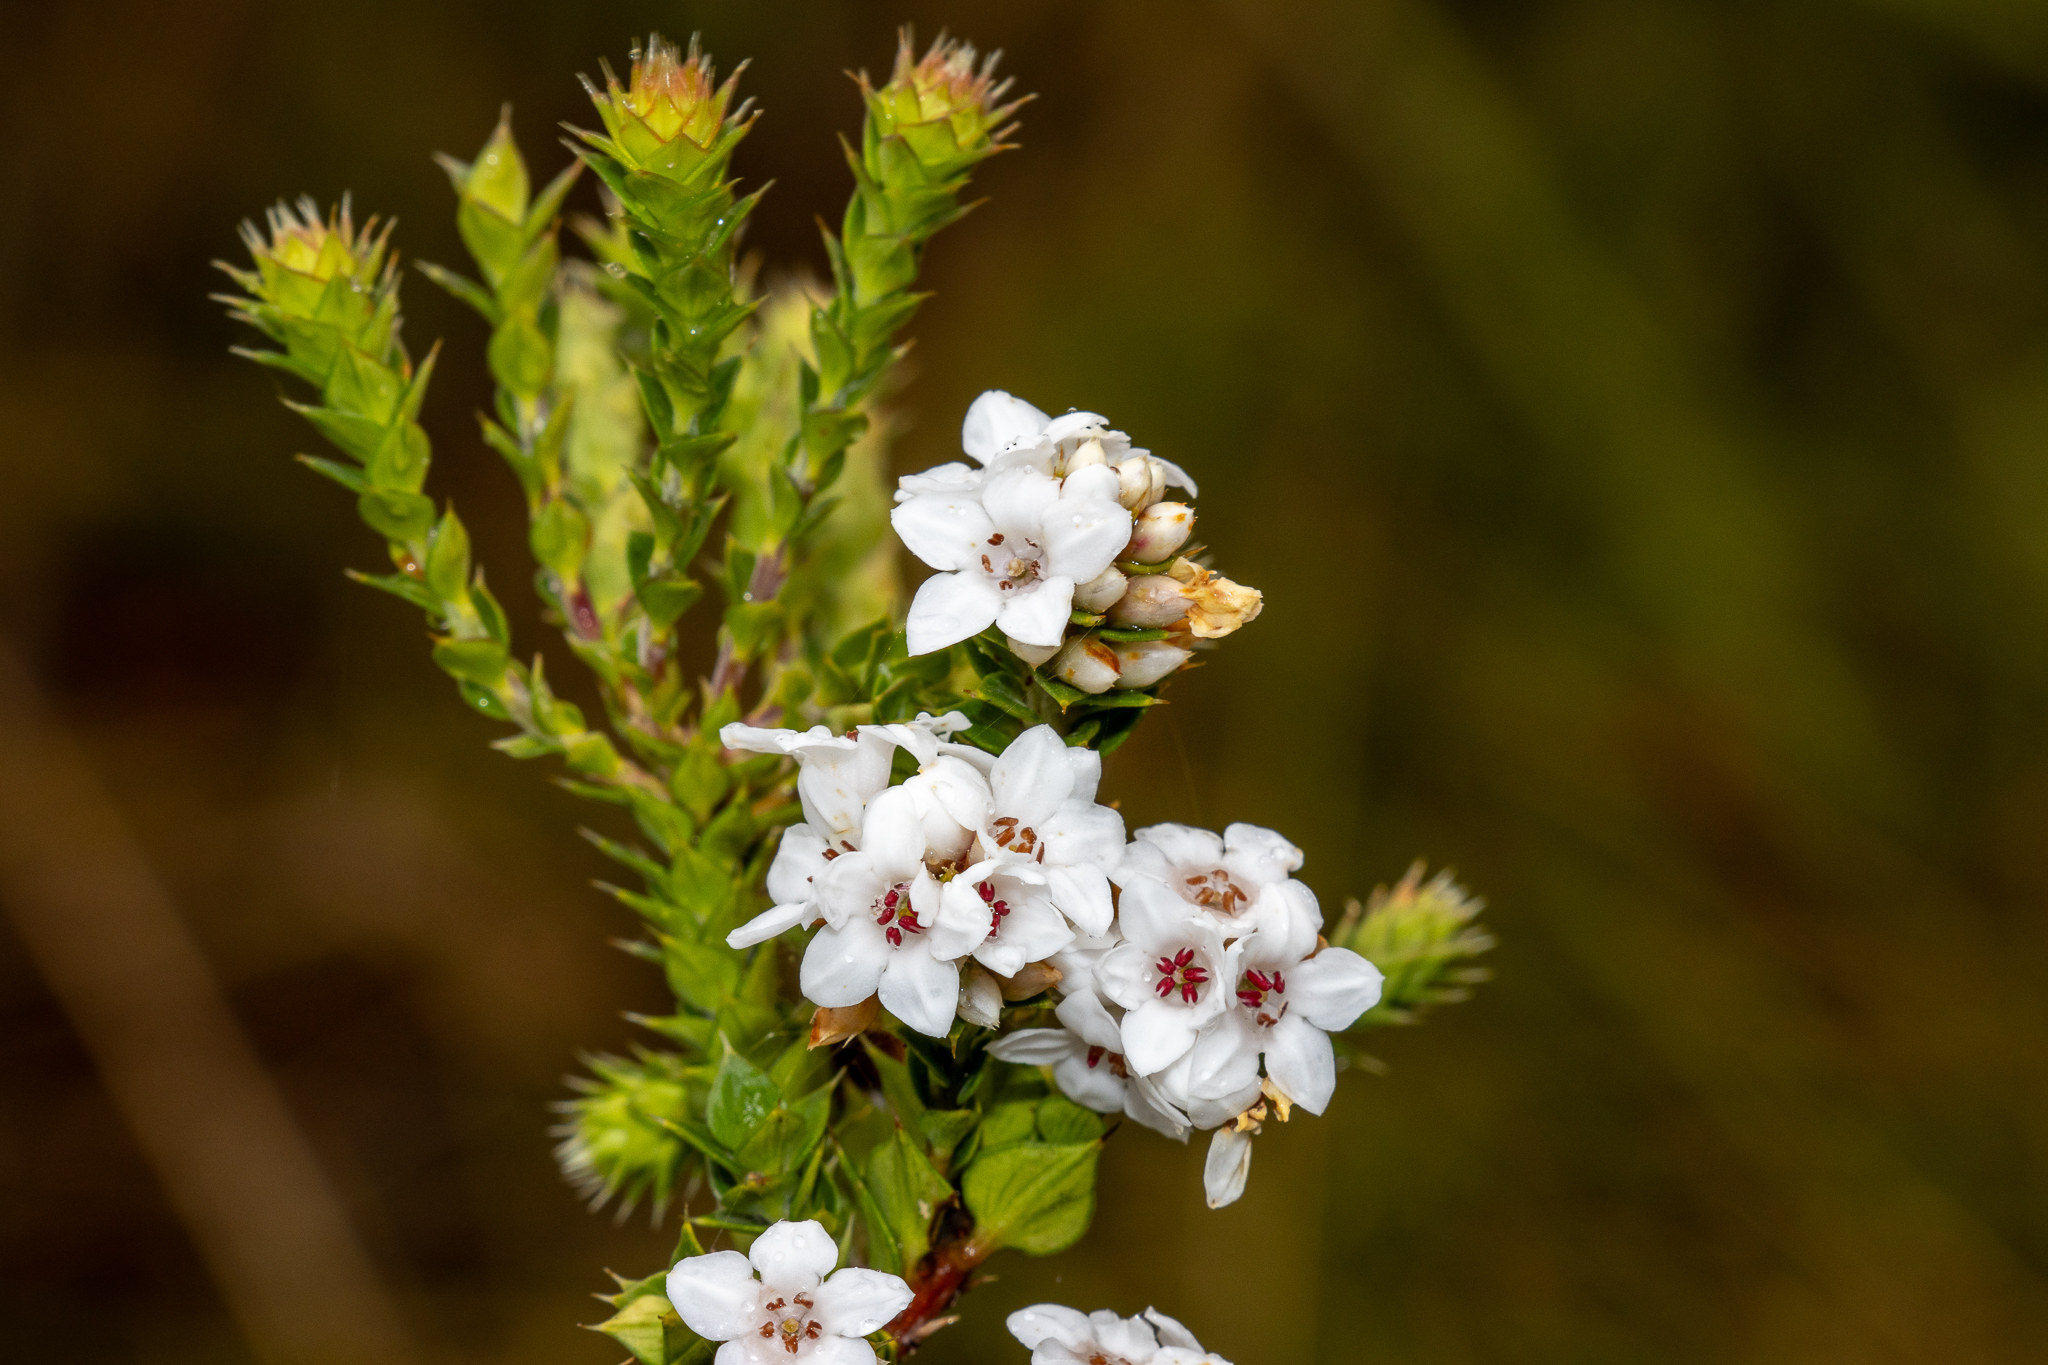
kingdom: Plantae
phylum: Tracheophyta
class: Magnoliopsida
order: Ericales
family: Ericaceae
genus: Epacris
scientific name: Epacris breviflora
